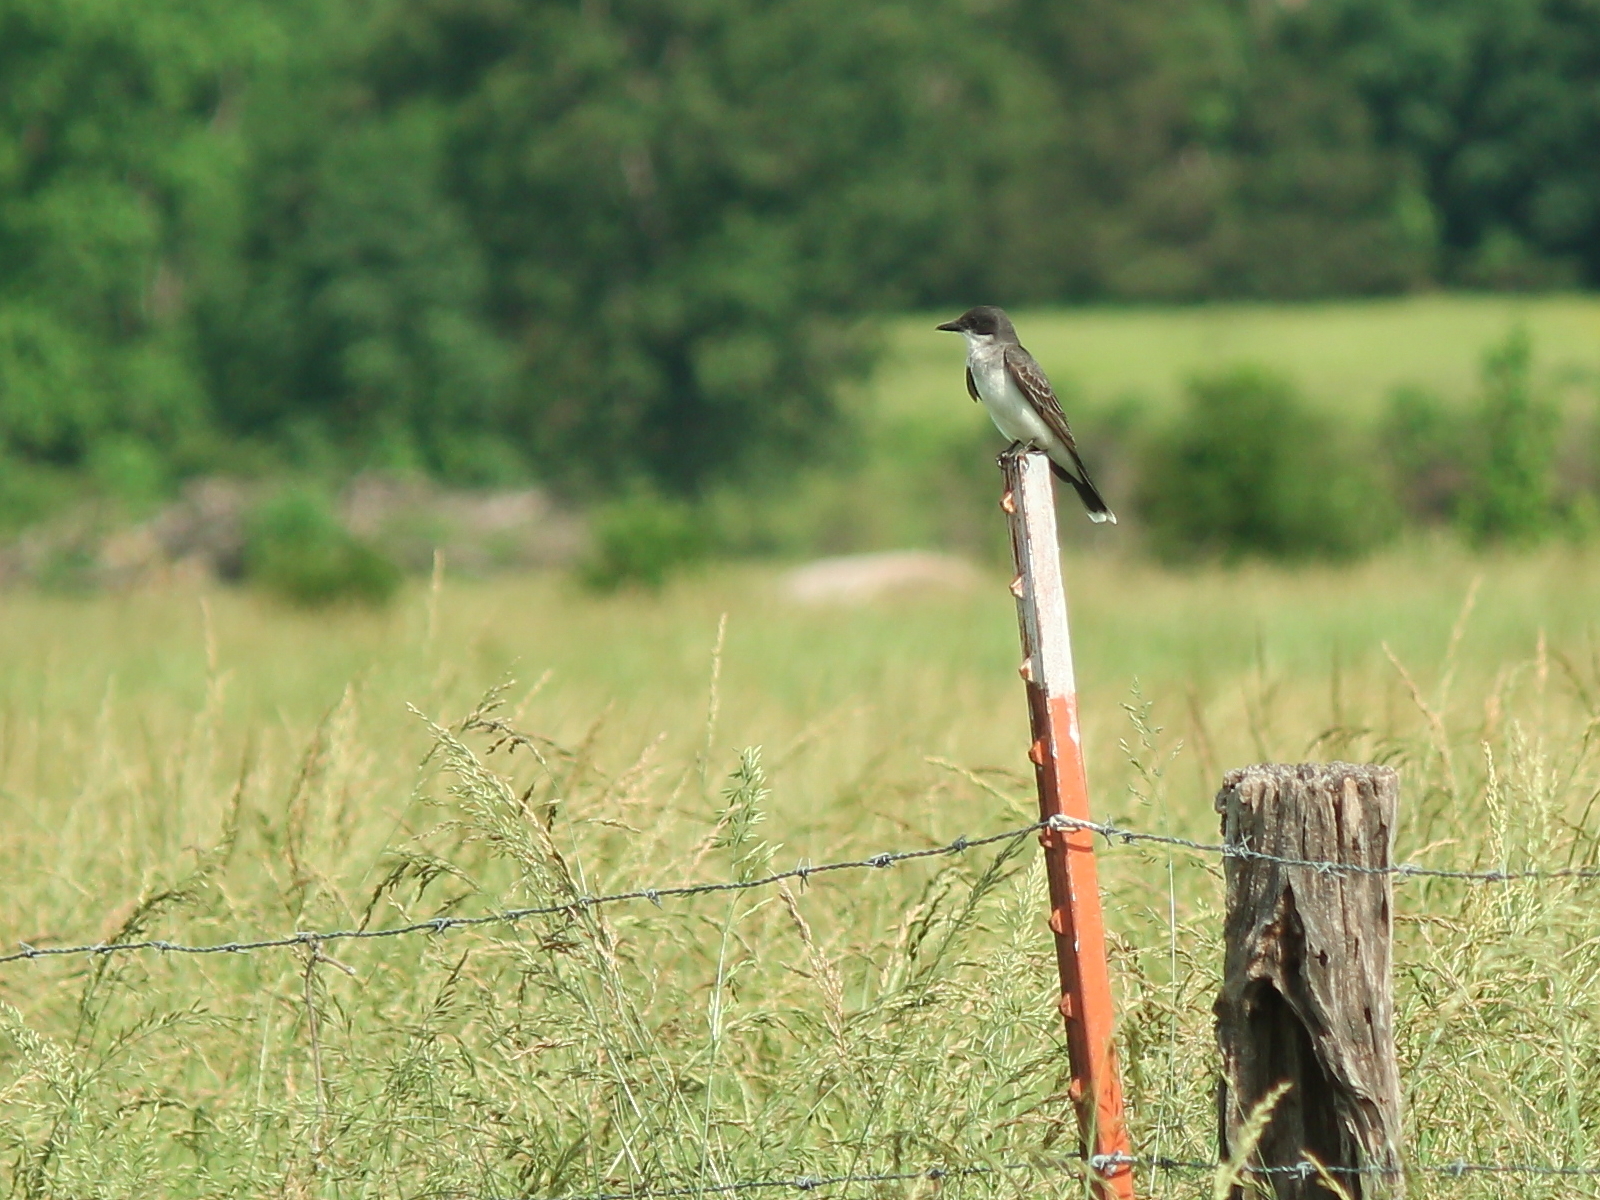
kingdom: Animalia
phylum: Chordata
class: Aves
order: Passeriformes
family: Tyrannidae
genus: Tyrannus
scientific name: Tyrannus tyrannus
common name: Eastern kingbird
